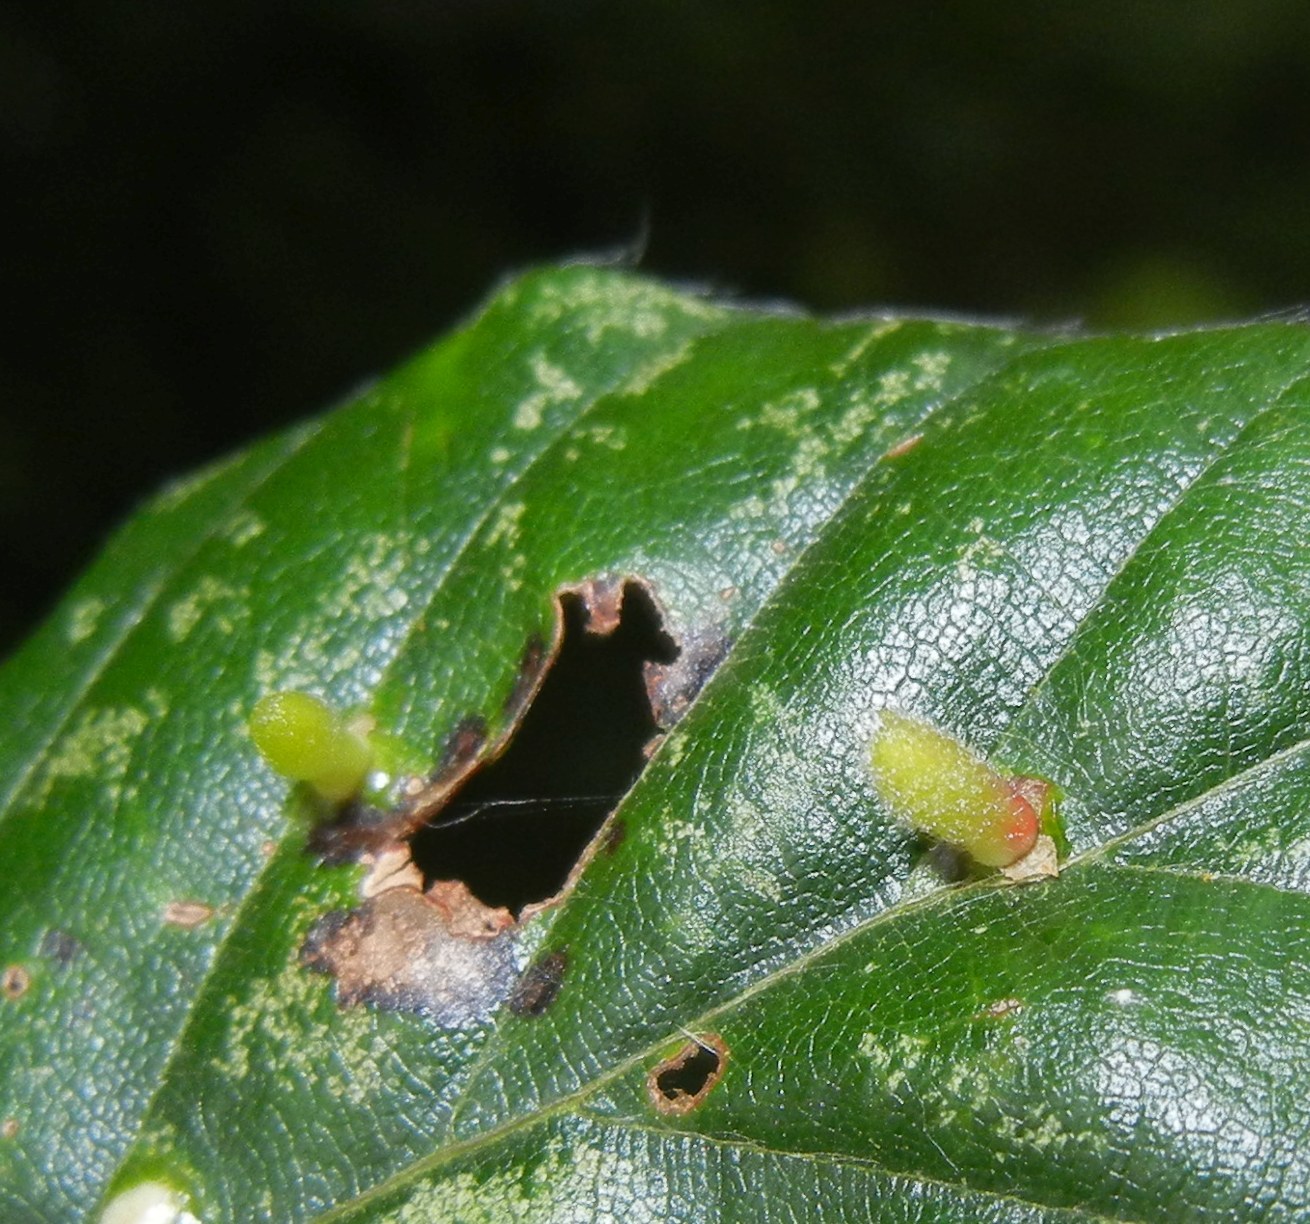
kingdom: Animalia
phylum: Arthropoda
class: Insecta
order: Diptera
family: Cecidomyiidae
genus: Hartigiola
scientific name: Hartigiola annulipes
